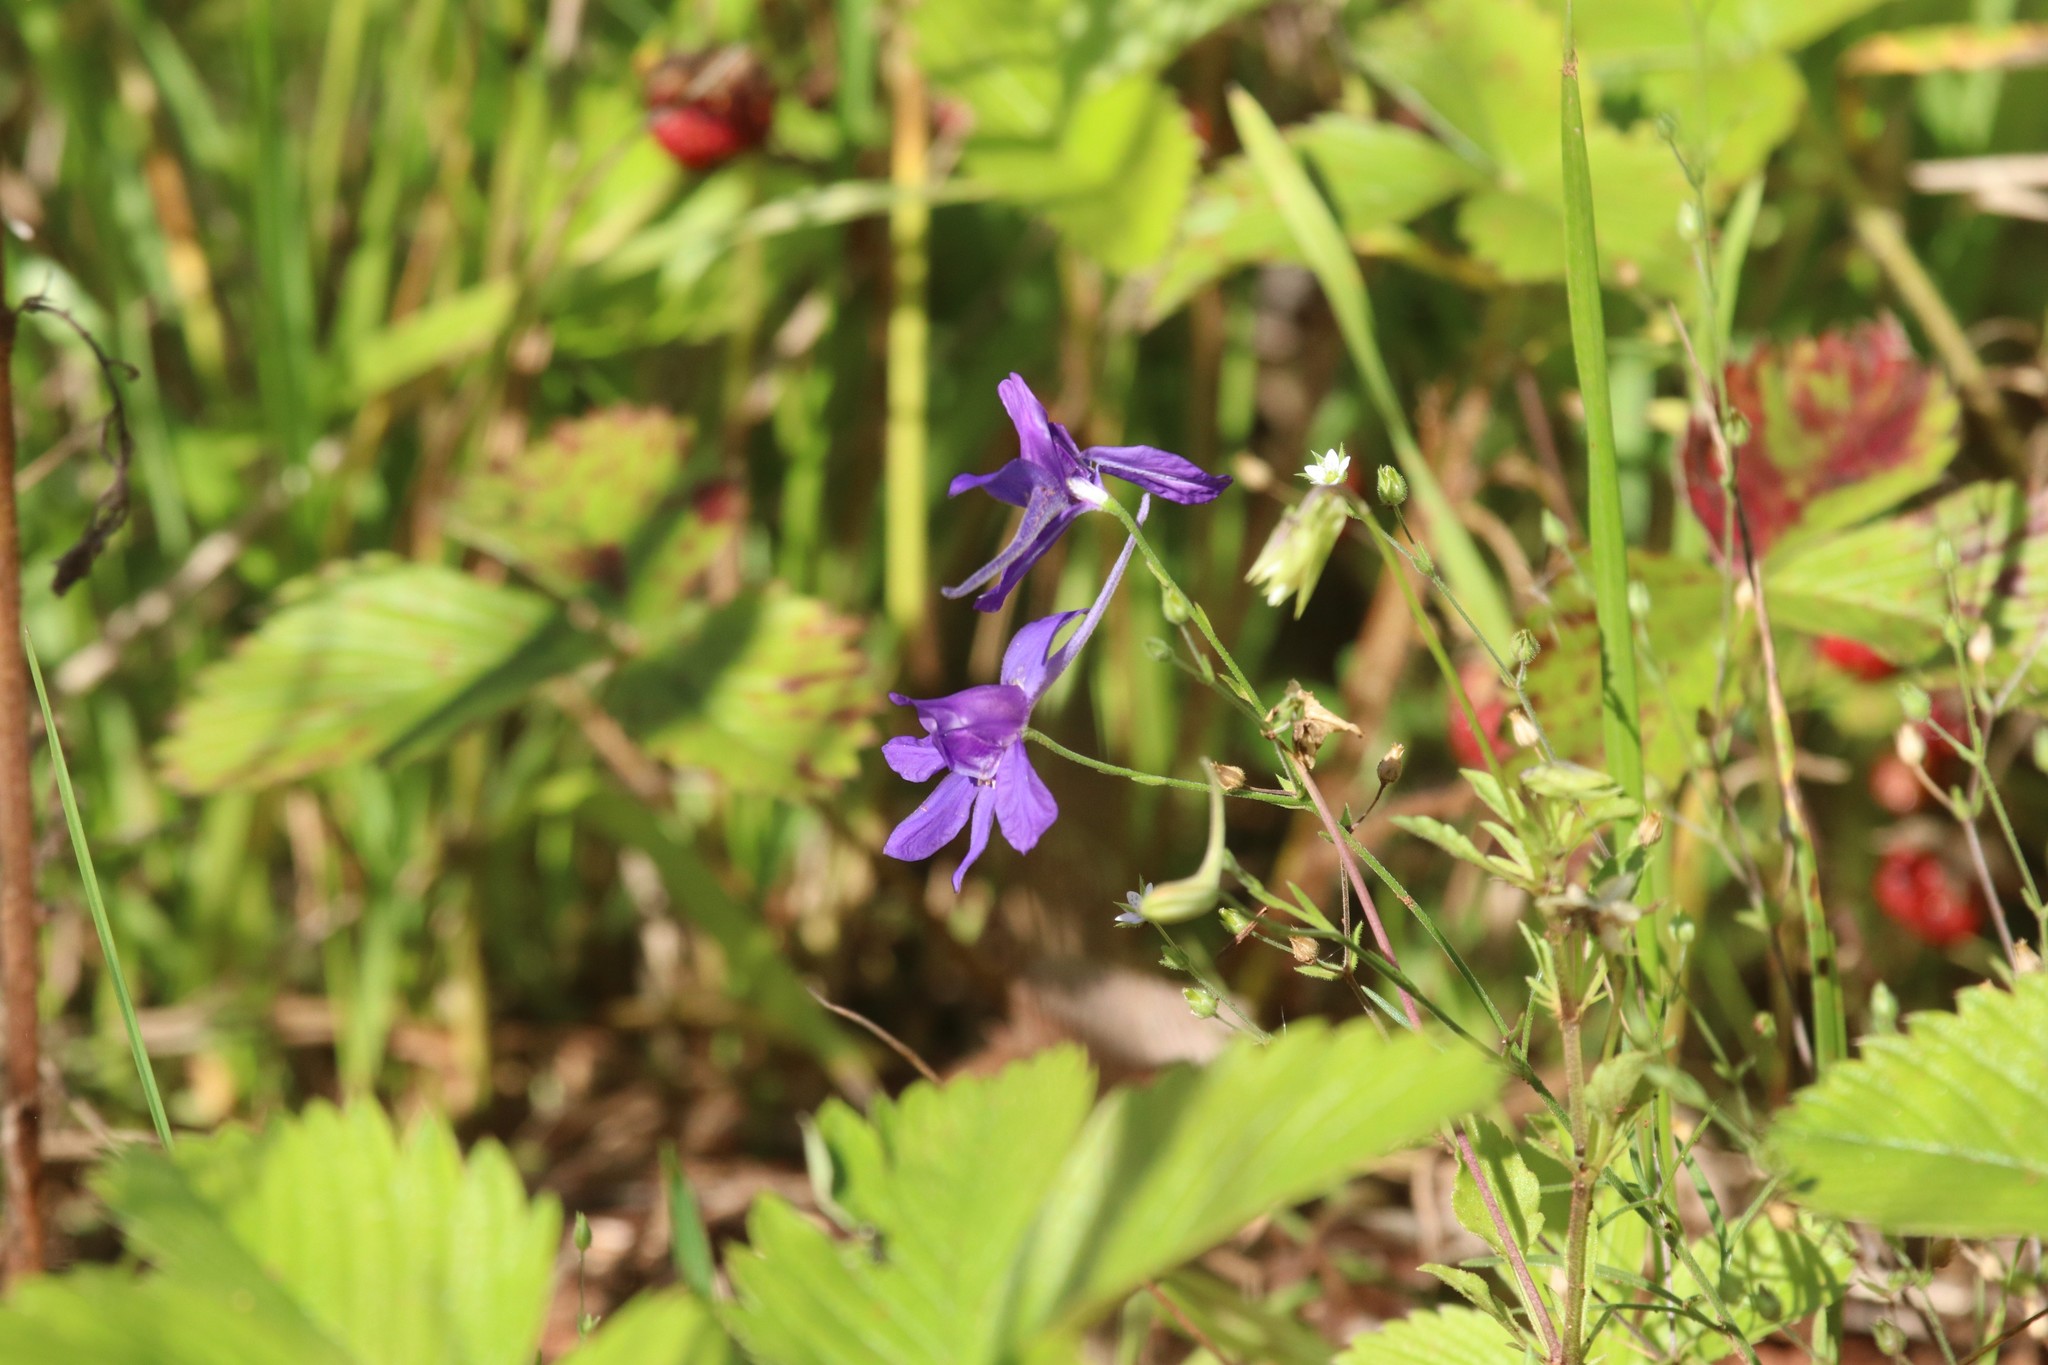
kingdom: Plantae
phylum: Tracheophyta
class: Magnoliopsida
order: Ranunculales
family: Ranunculaceae
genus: Delphinium
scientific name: Delphinium consolida
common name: Branching larkspur
